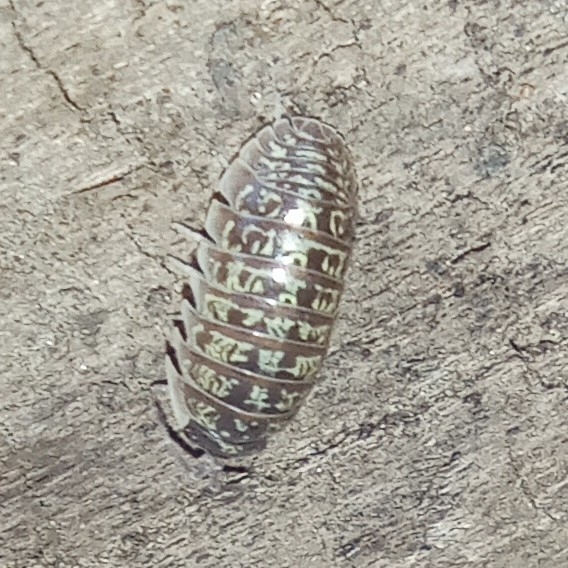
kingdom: Animalia
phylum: Arthropoda
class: Malacostraca
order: Isopoda
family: Armadillidiidae
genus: Armadillidium
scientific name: Armadillidium versicolor
